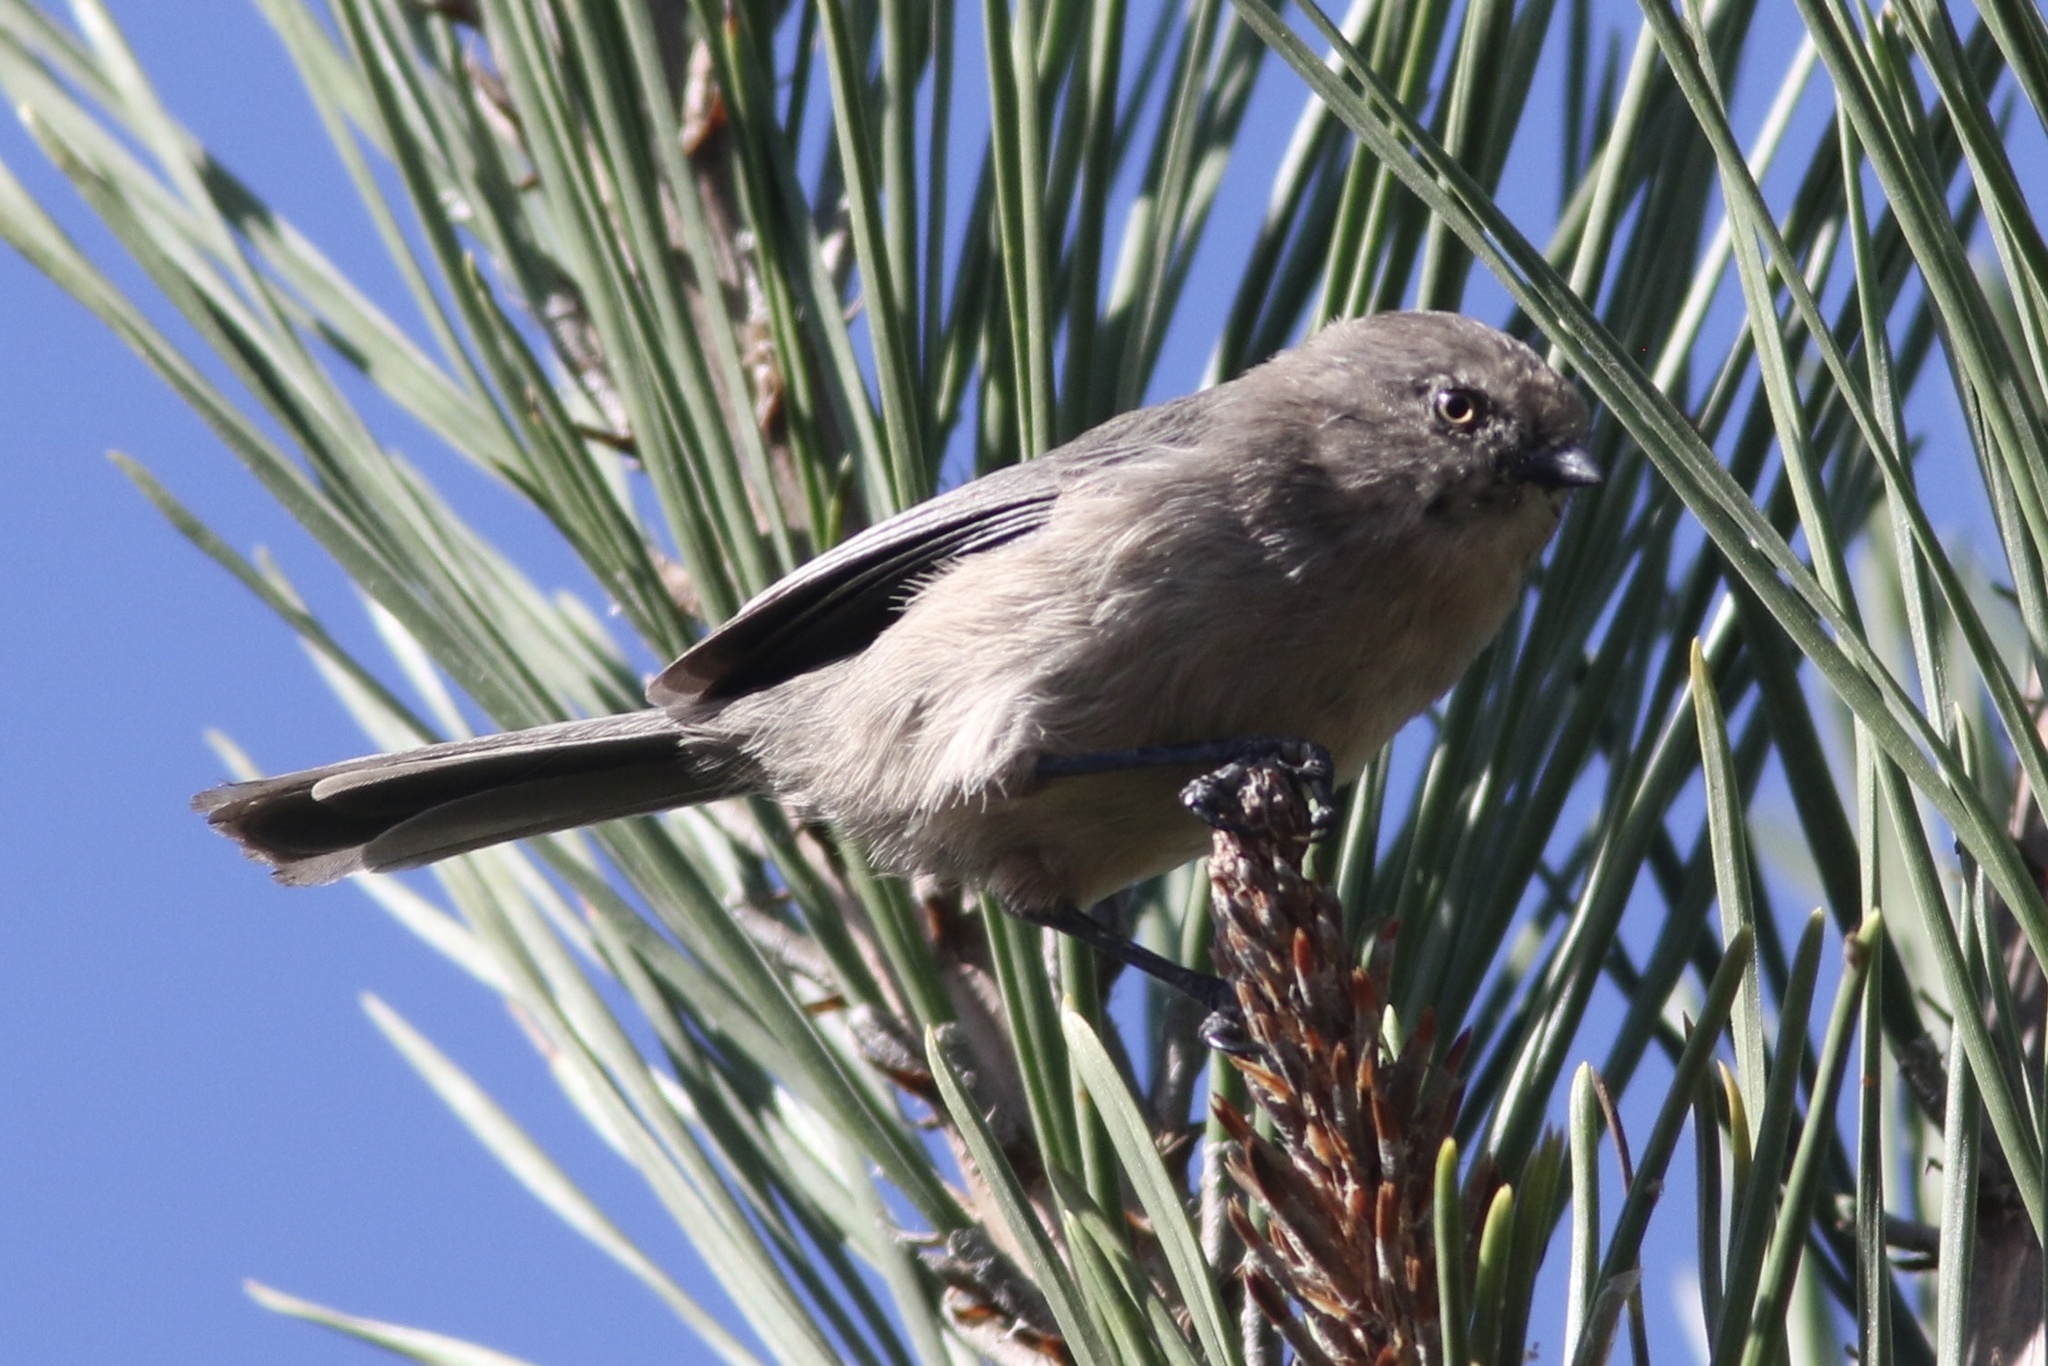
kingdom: Animalia
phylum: Chordata
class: Aves
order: Passeriformes
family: Aegithalidae
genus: Psaltriparus
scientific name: Psaltriparus minimus
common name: American bushtit
